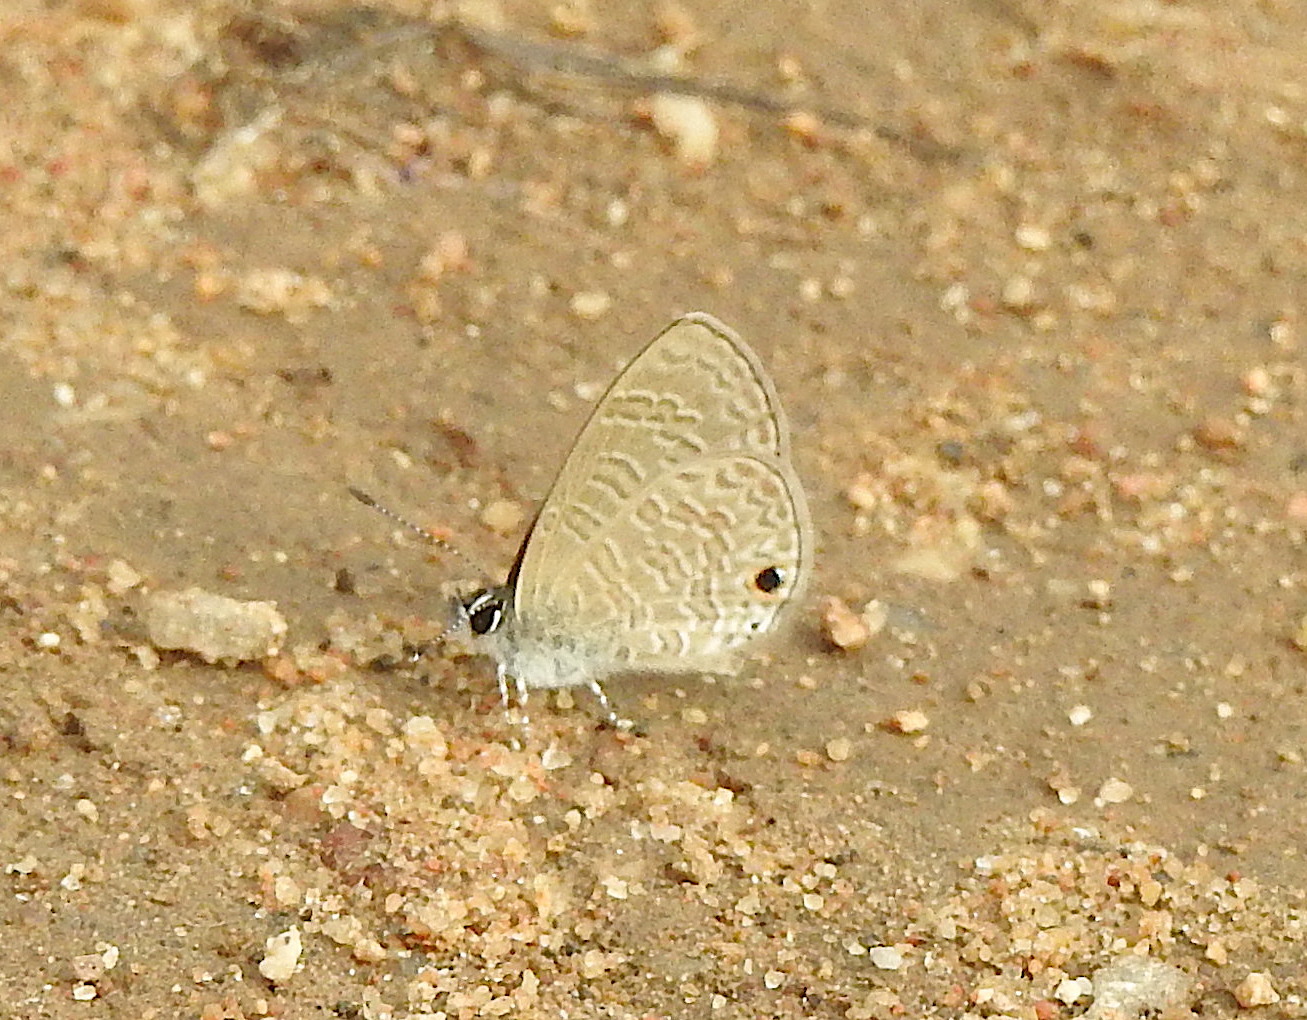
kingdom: Animalia
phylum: Arthropoda
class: Insecta
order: Lepidoptera
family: Lycaenidae
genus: Prosotas
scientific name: Prosotas dubiosa
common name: Tailless lineblue
